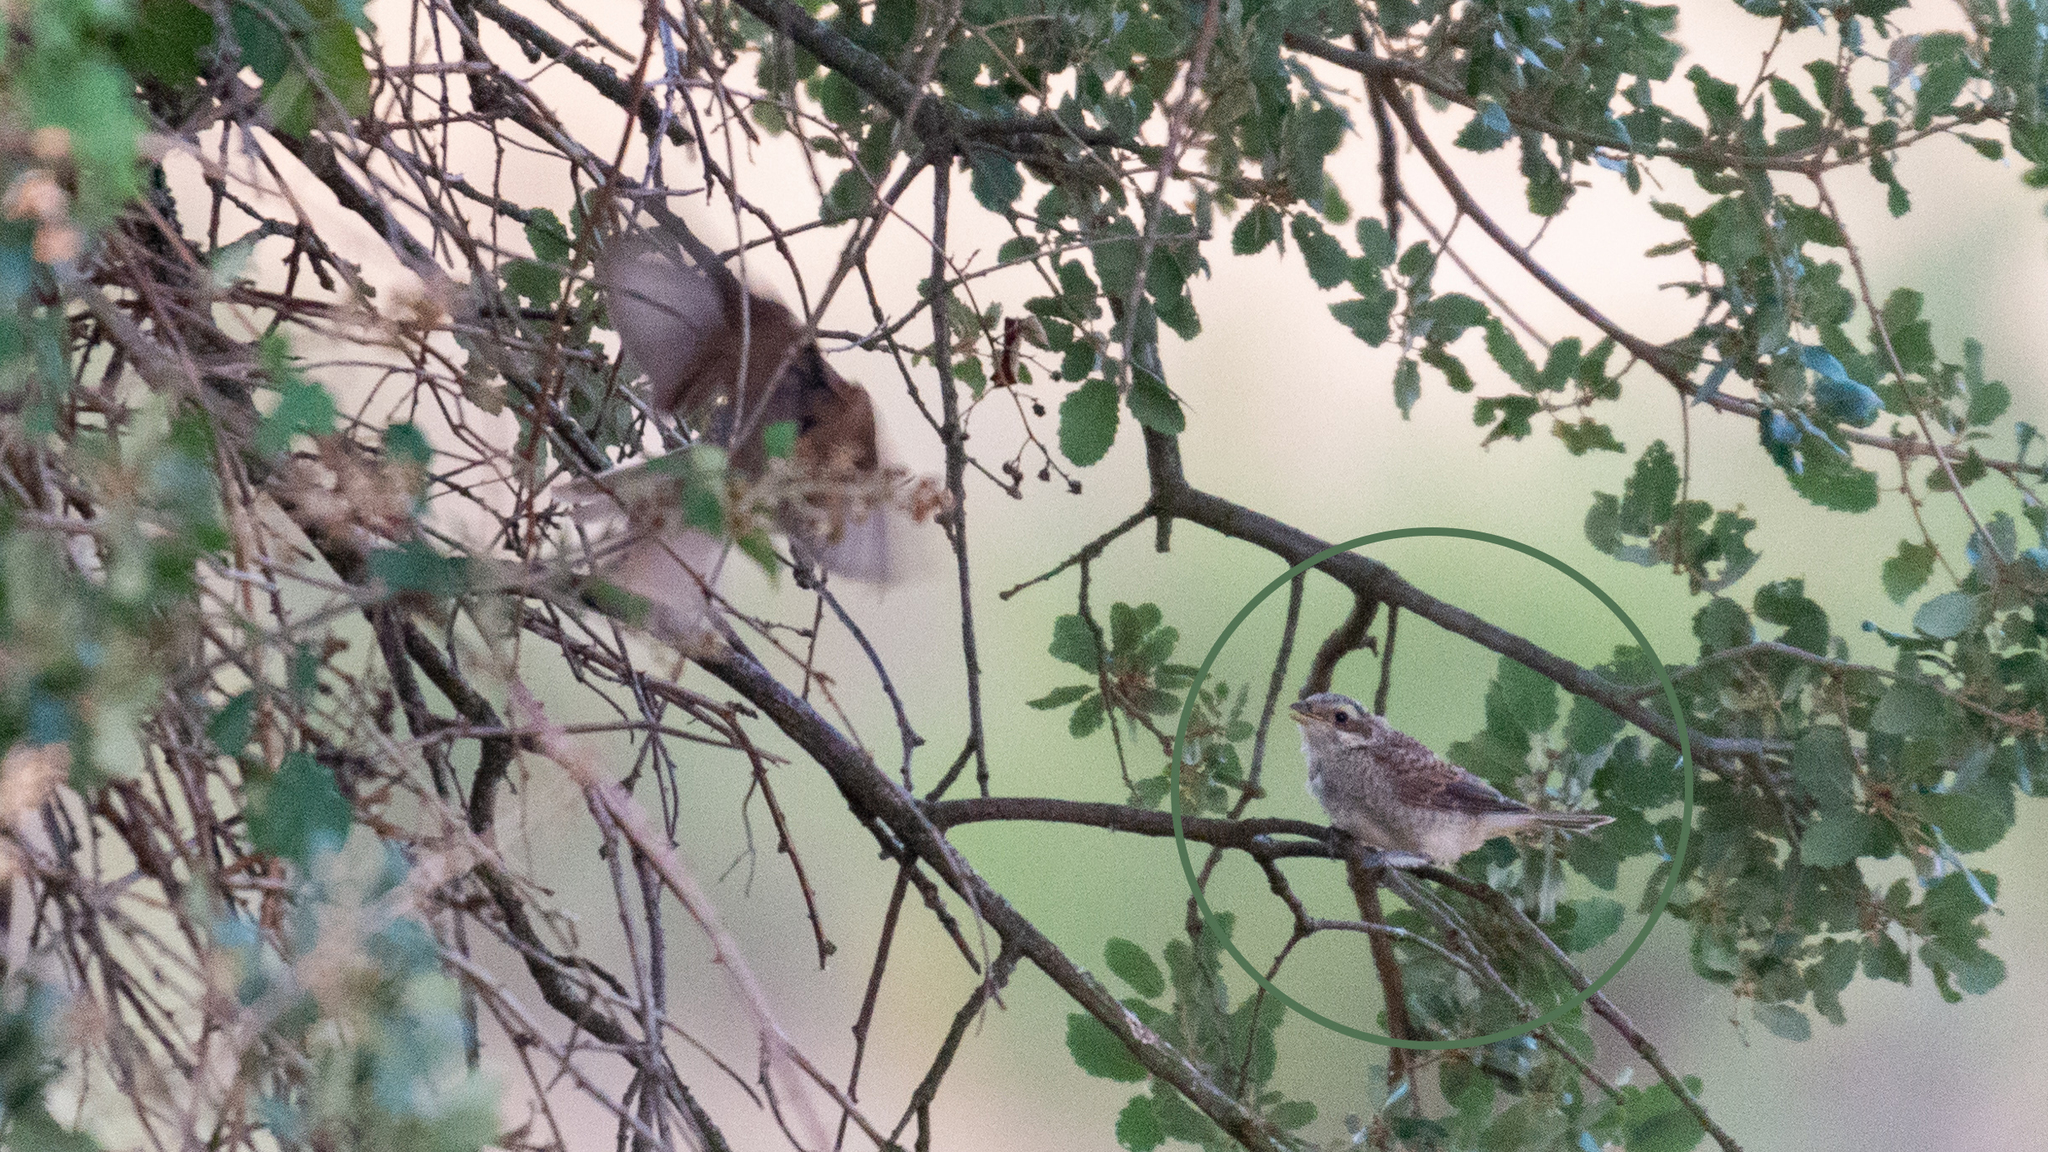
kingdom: Animalia
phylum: Chordata
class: Aves
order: Passeriformes
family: Laniidae
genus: Lanius
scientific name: Lanius collurio
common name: Red-backed shrike
